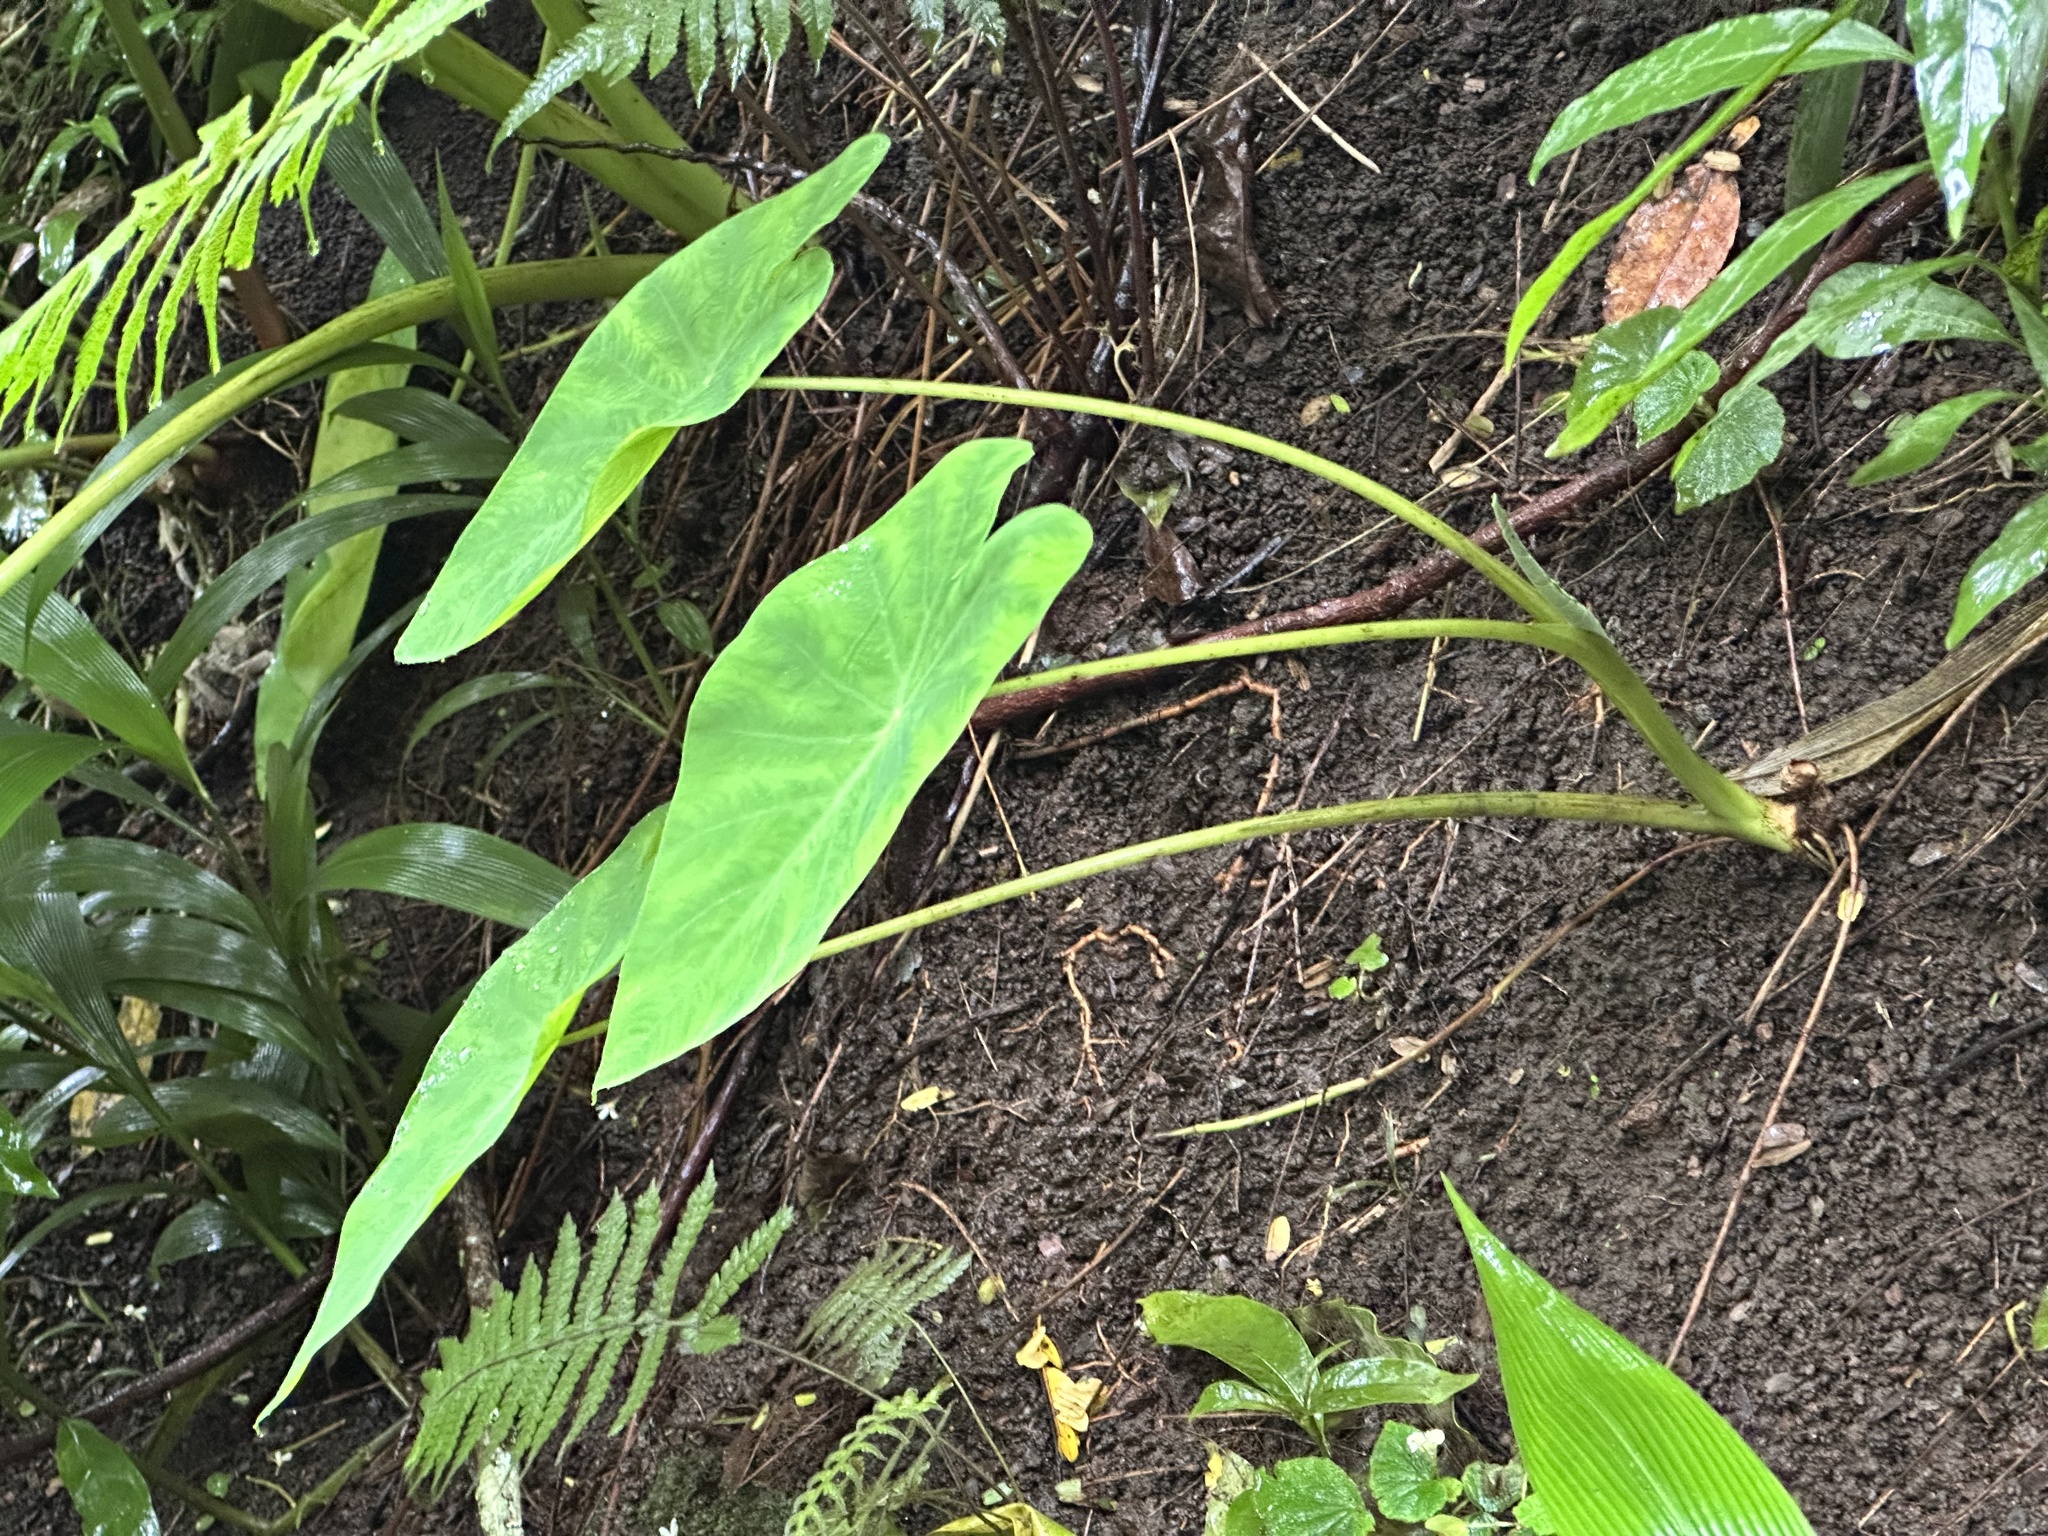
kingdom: Plantae
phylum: Tracheophyta
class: Liliopsida
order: Alismatales
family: Araceae
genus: Colocasia
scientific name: Colocasia esculenta
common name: Taro
